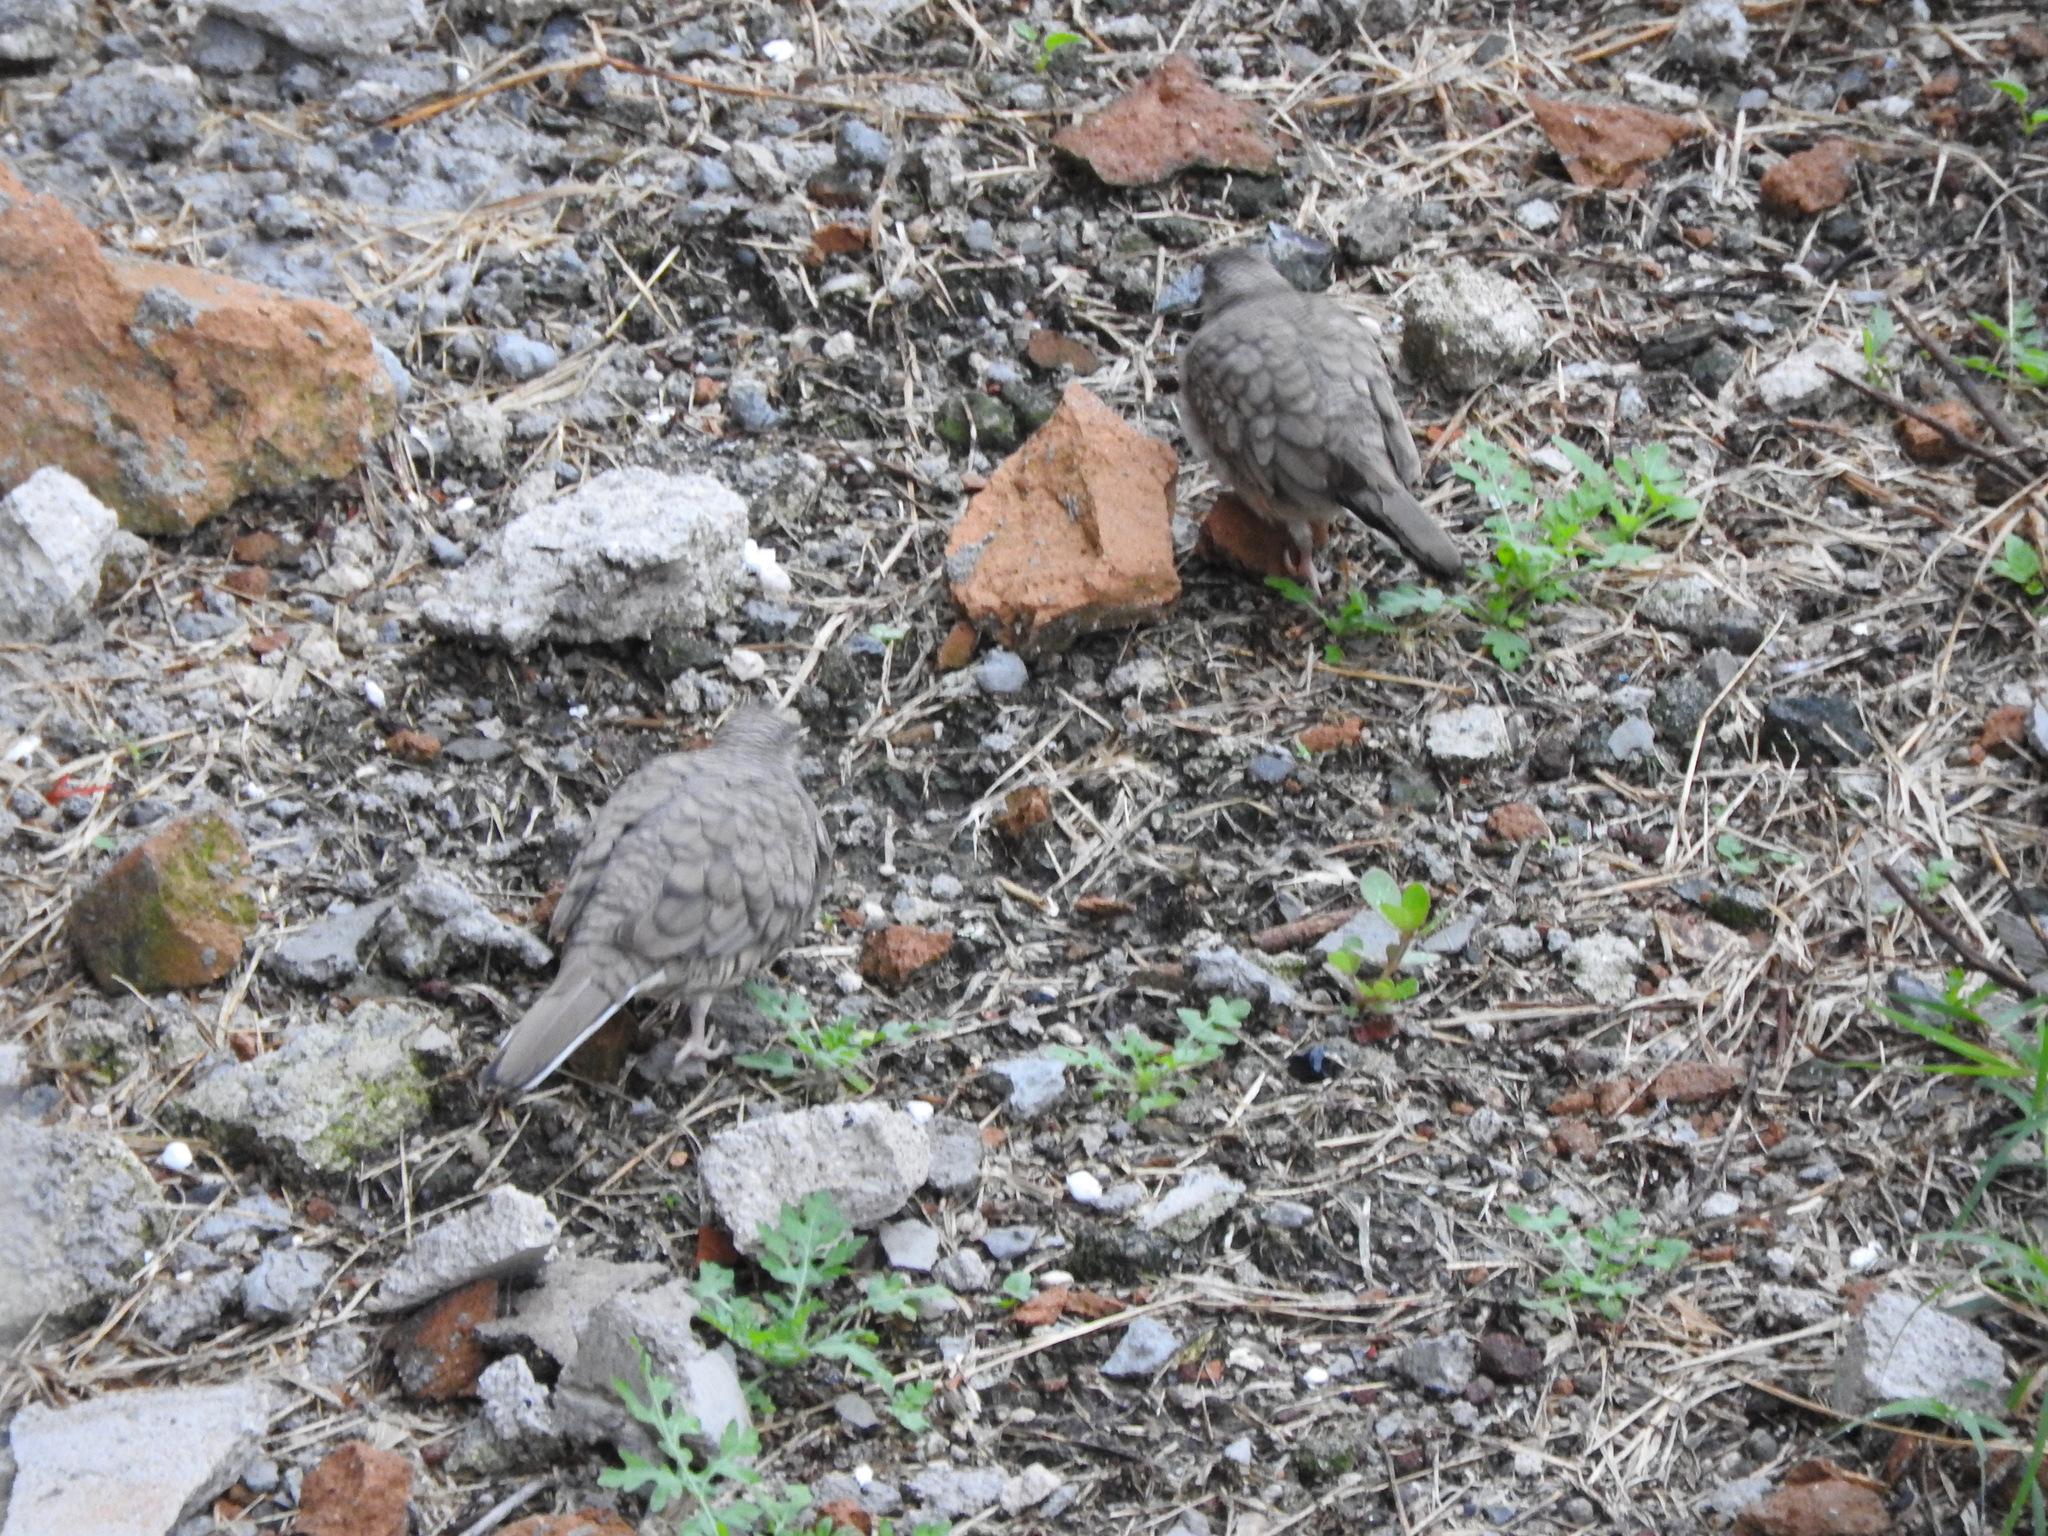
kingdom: Animalia
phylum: Chordata
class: Aves
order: Columbiformes
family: Columbidae
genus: Columbina
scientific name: Columbina inca
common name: Inca dove
